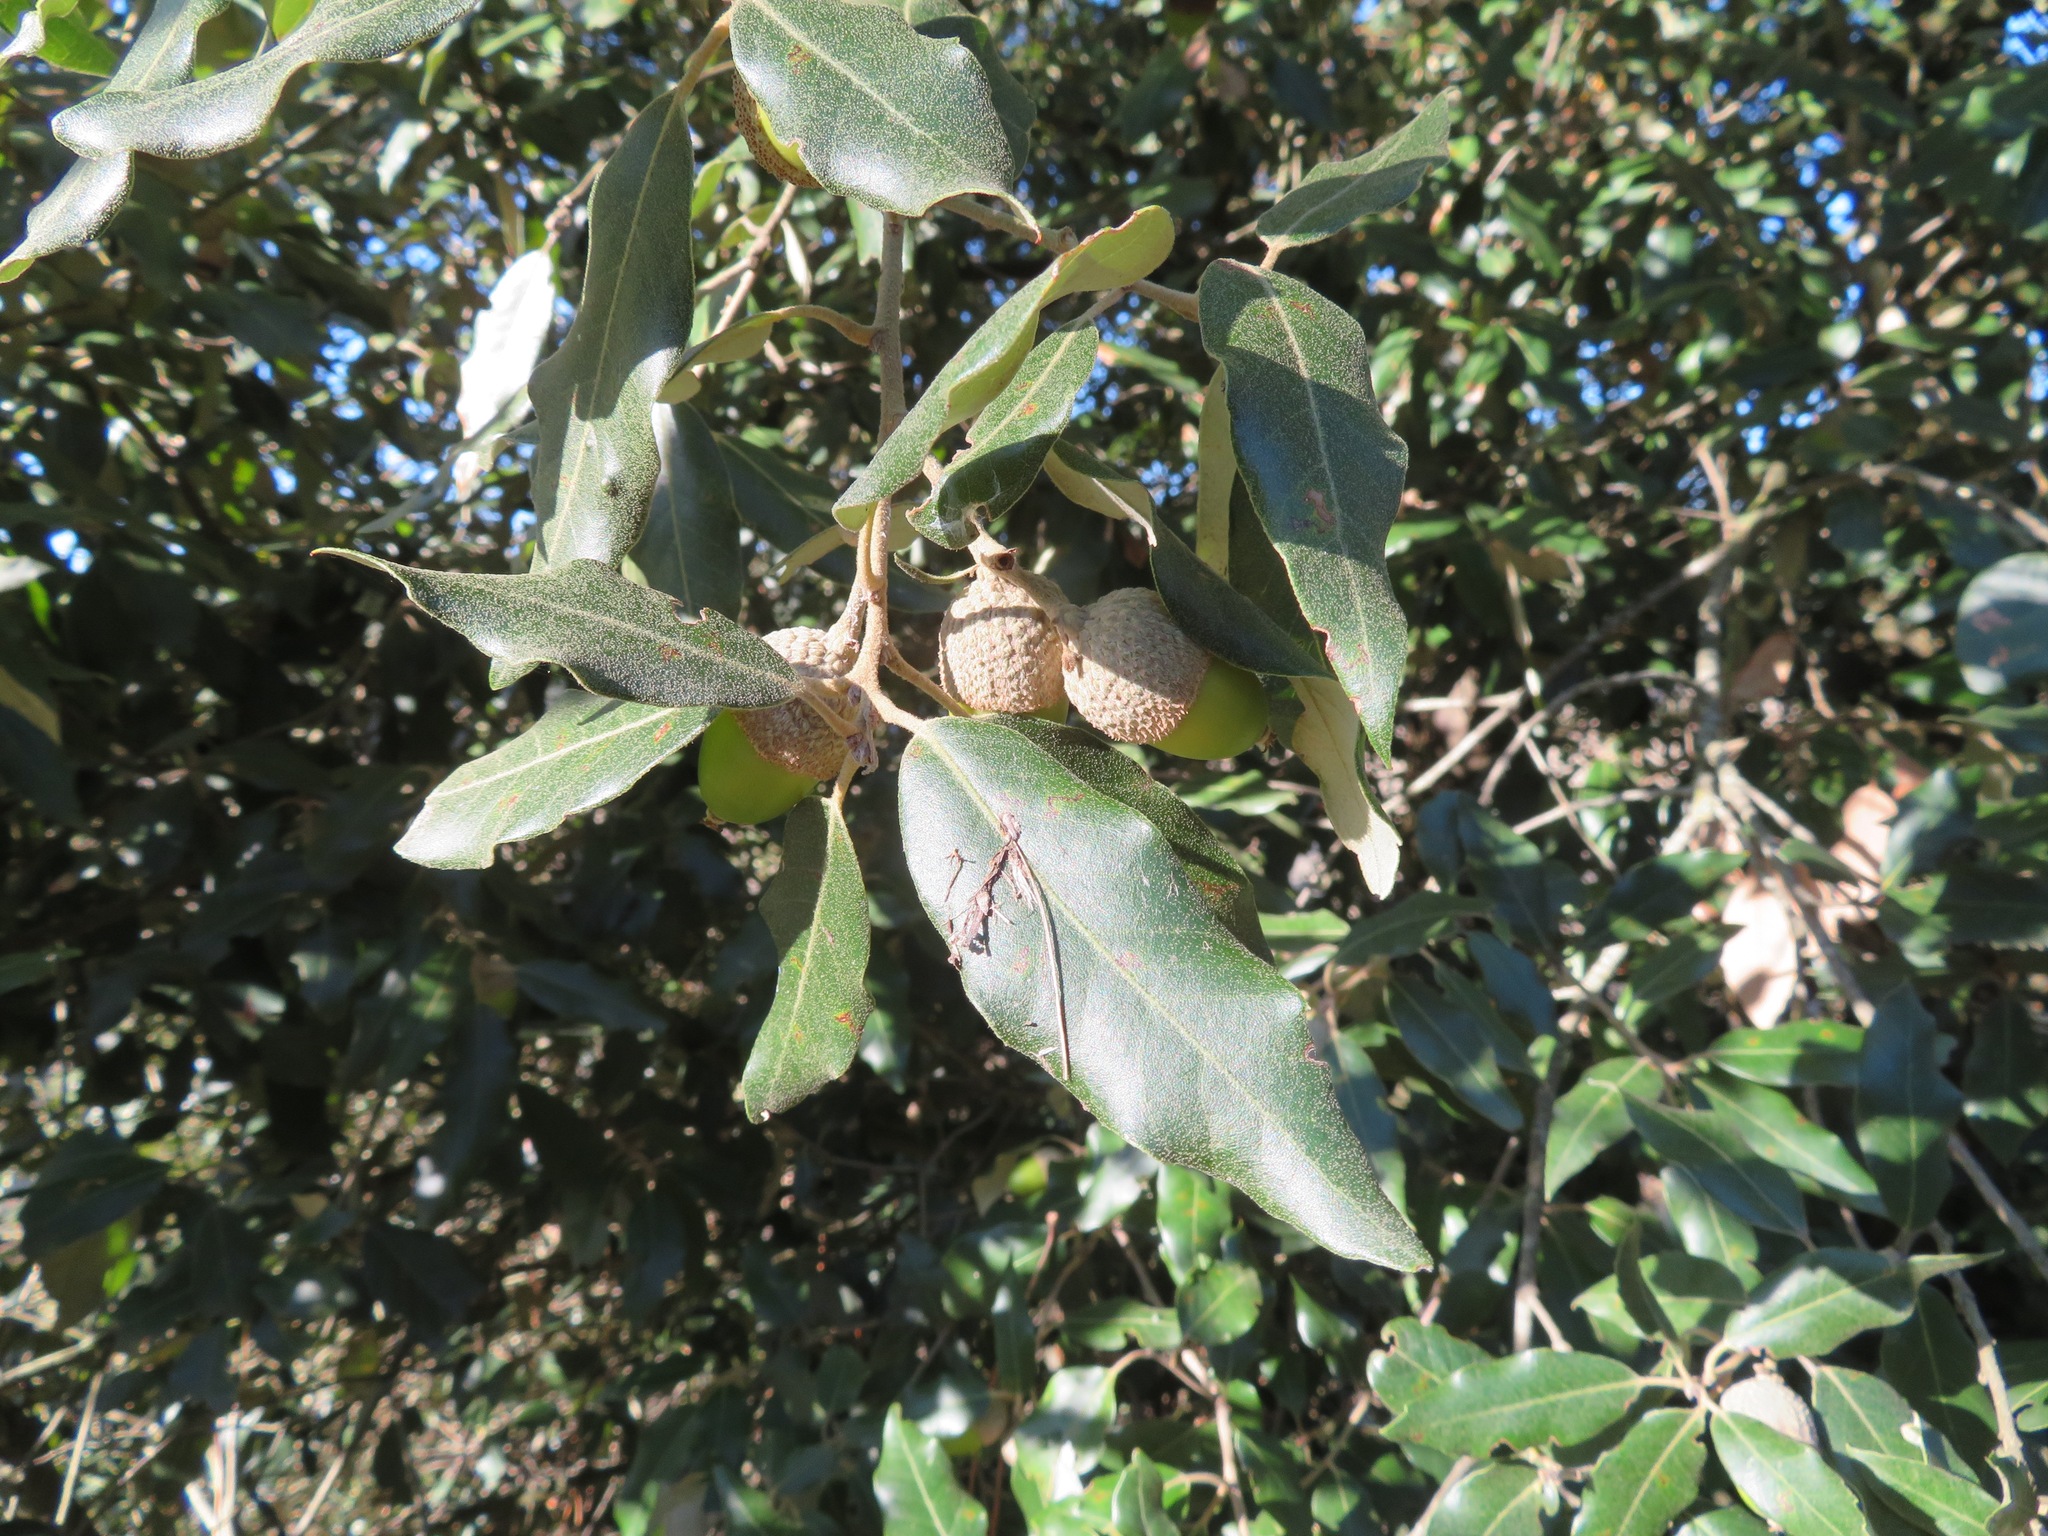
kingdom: Plantae
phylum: Tracheophyta
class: Magnoliopsida
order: Fagales
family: Fagaceae
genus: Quercus
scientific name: Quercus ilex
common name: Evergreen oak
